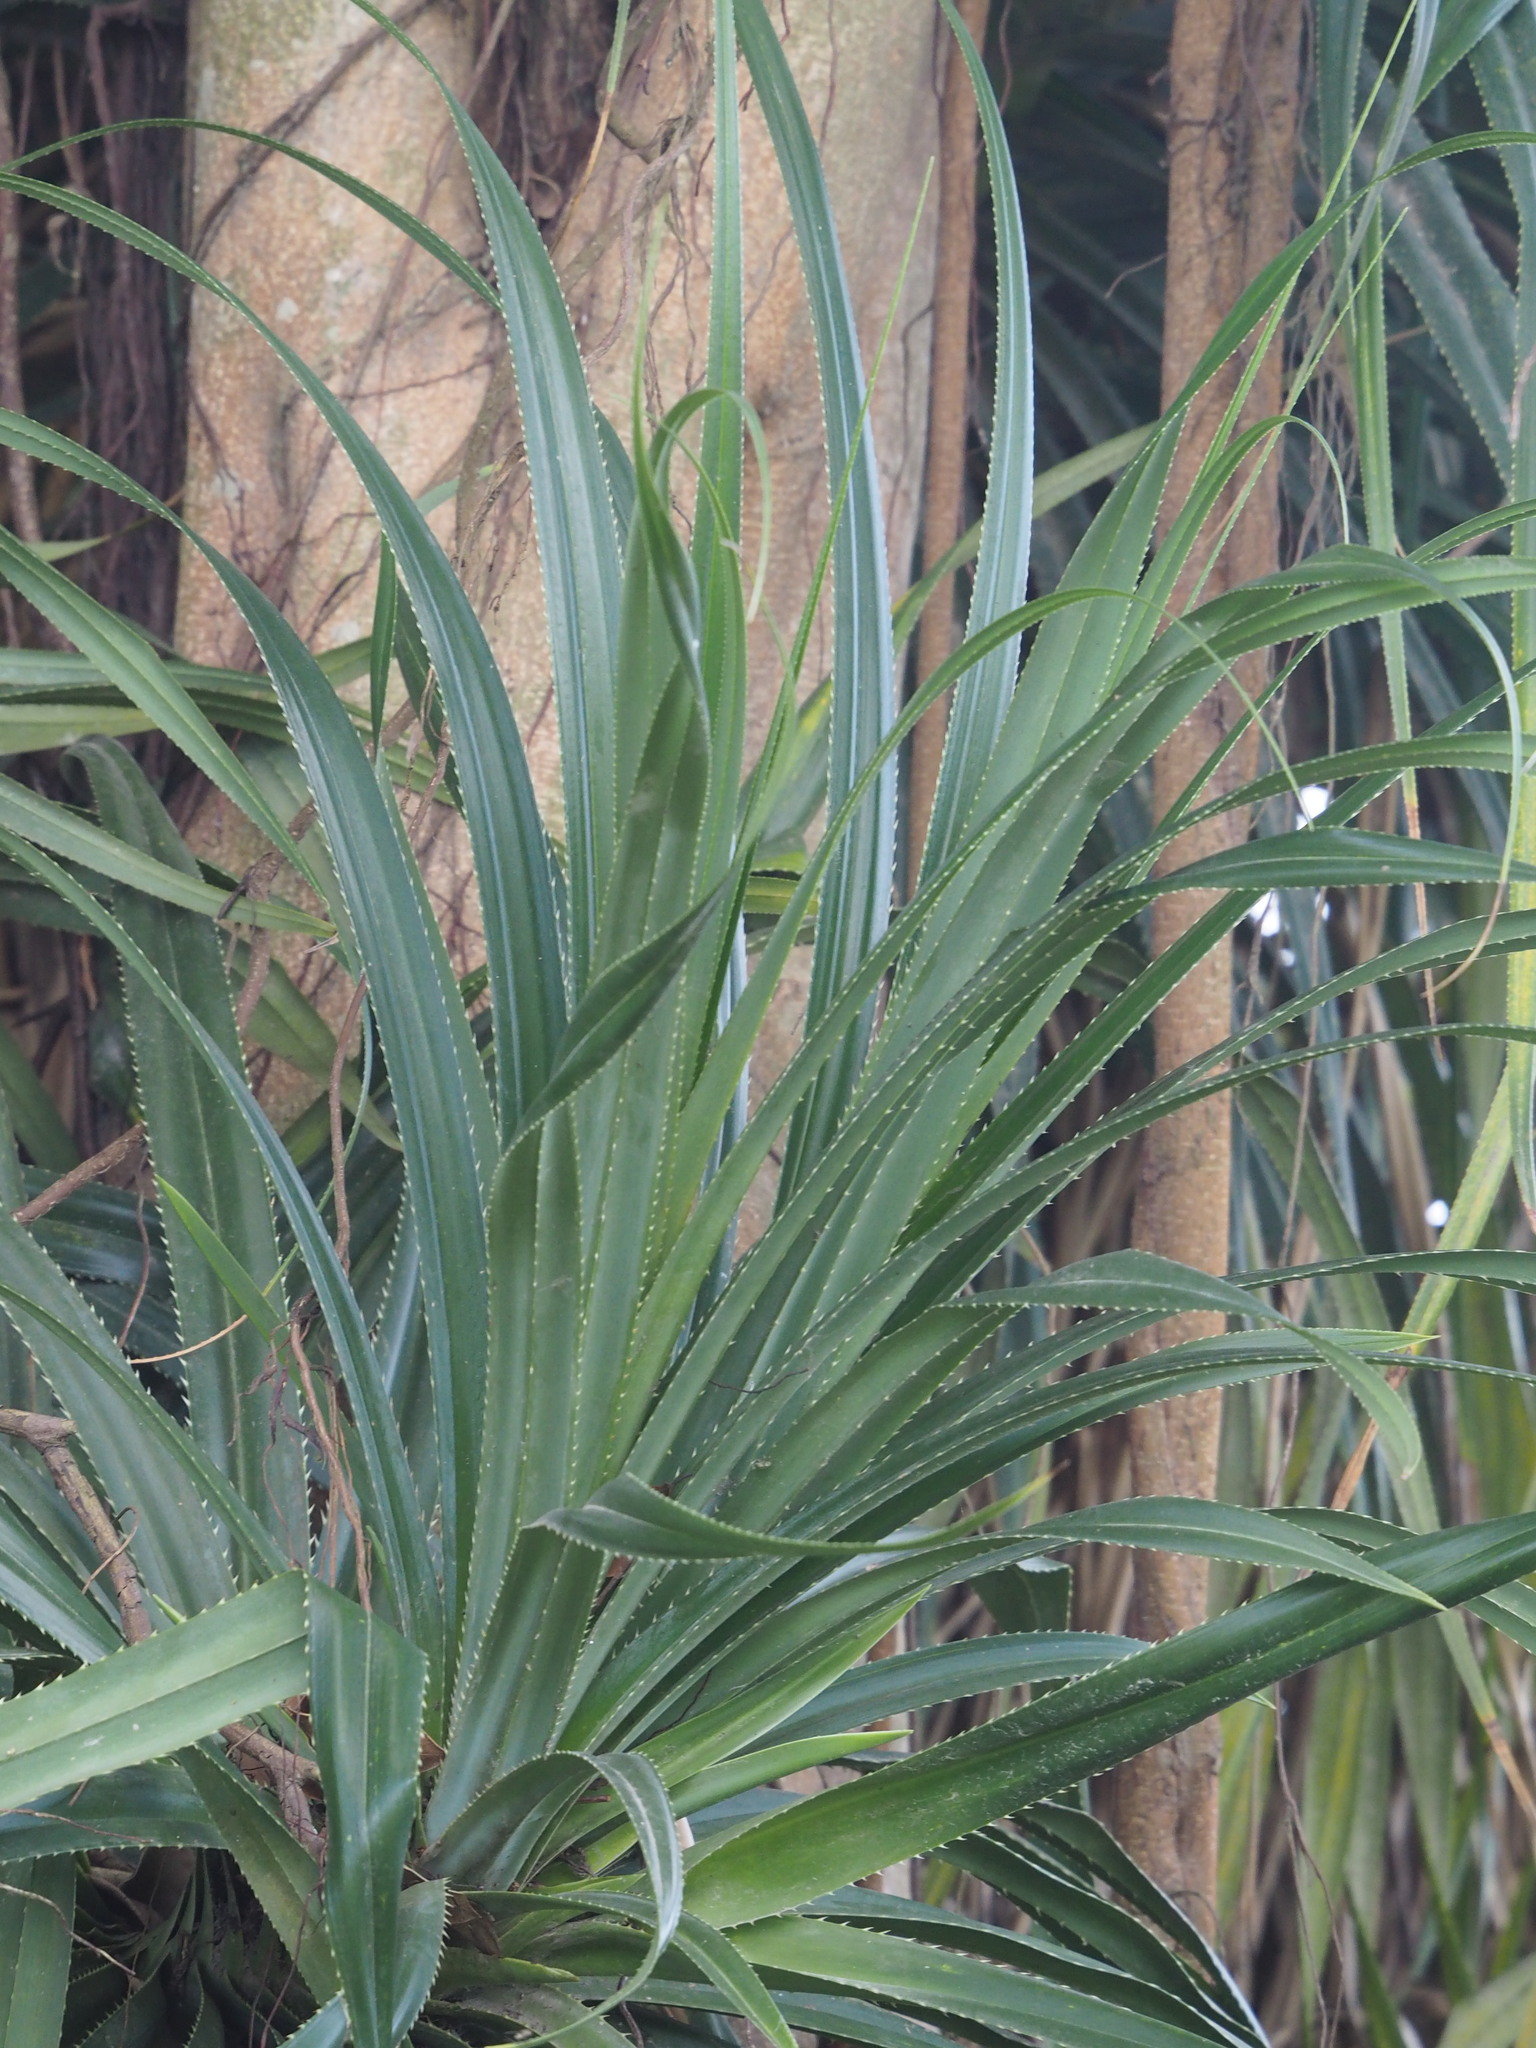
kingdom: Plantae
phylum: Tracheophyta
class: Liliopsida
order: Pandanales
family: Pandanaceae
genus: Pandanus
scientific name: Pandanus odorifer
